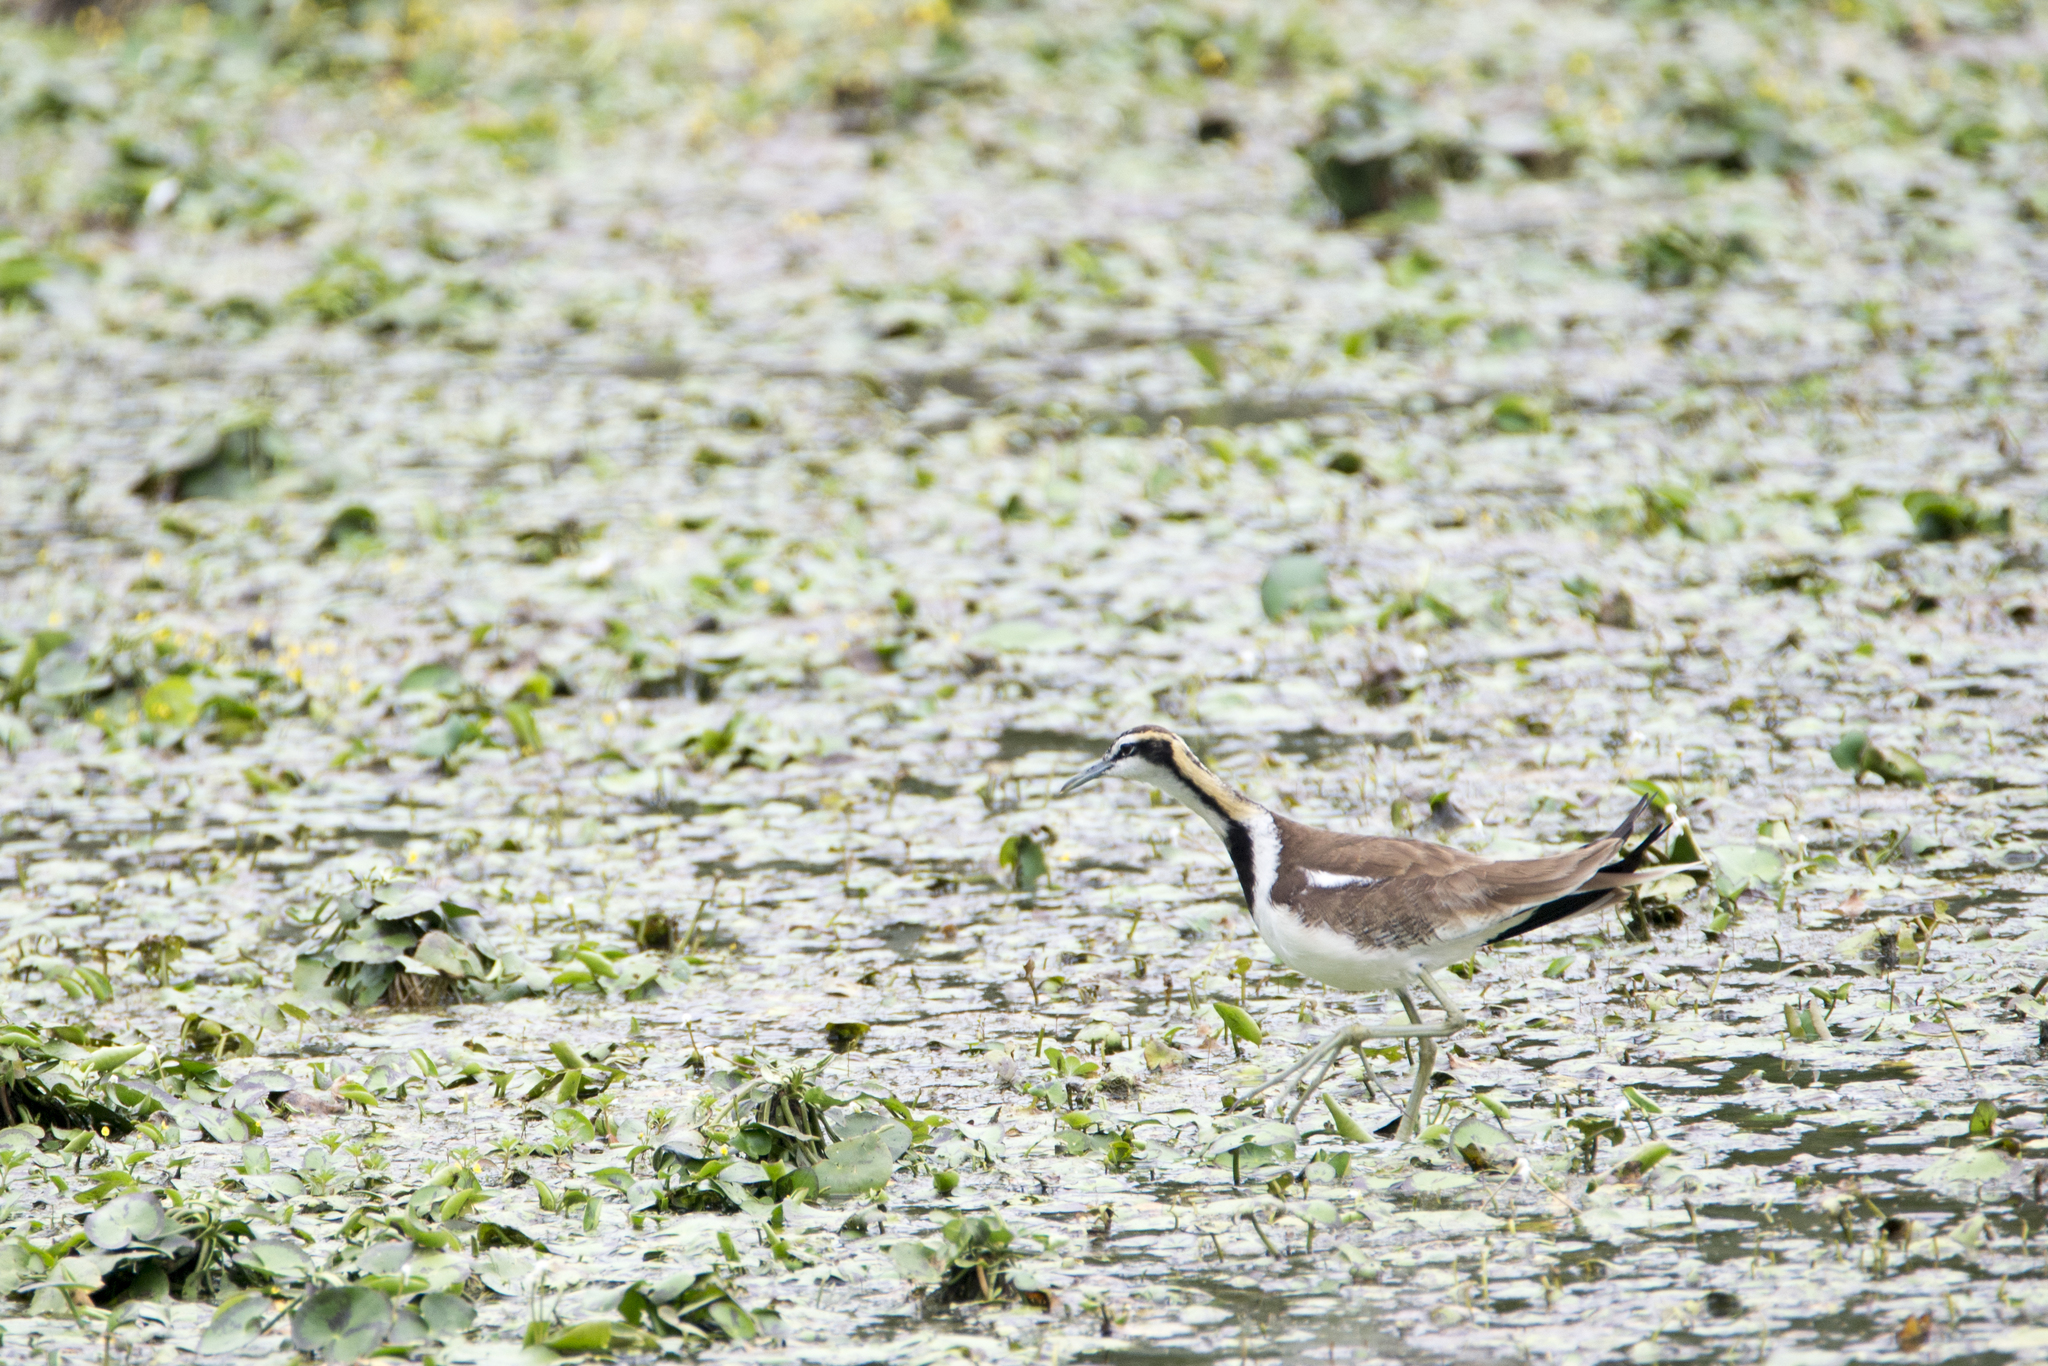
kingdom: Animalia
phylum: Chordata
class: Aves
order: Charadriiformes
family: Jacanidae
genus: Hydrophasianus
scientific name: Hydrophasianus chirurgus
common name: Pheasant-tailed jacana
